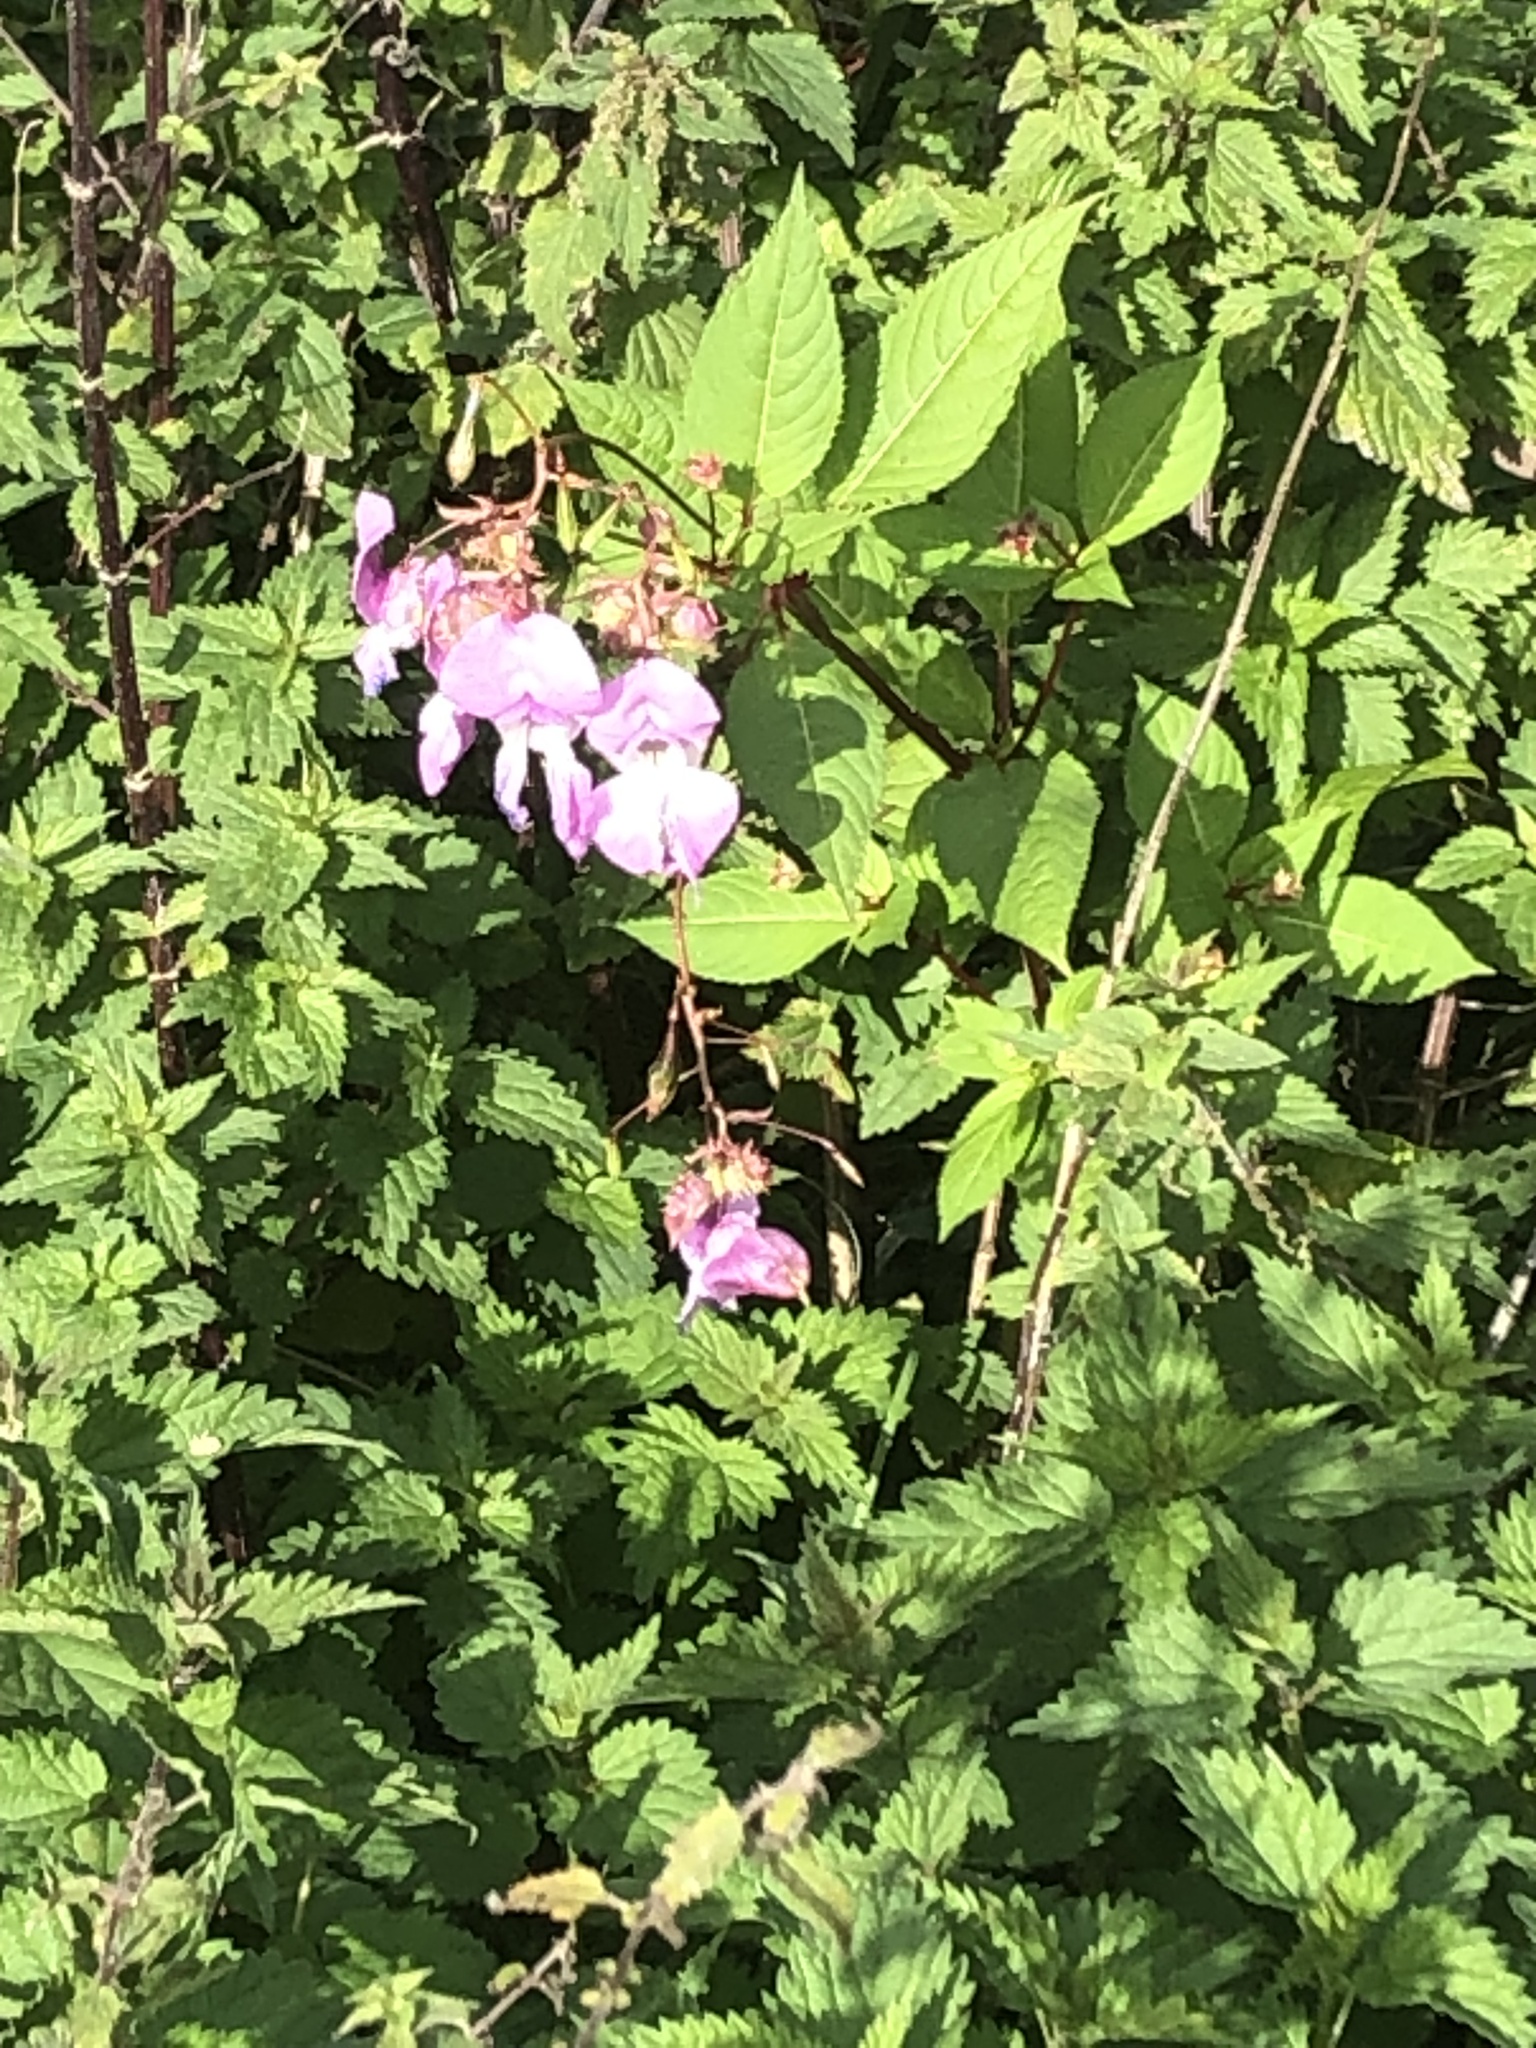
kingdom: Plantae
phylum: Tracheophyta
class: Magnoliopsida
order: Ericales
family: Balsaminaceae
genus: Impatiens
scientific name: Impatiens glandulifera
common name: Himalayan balsam
